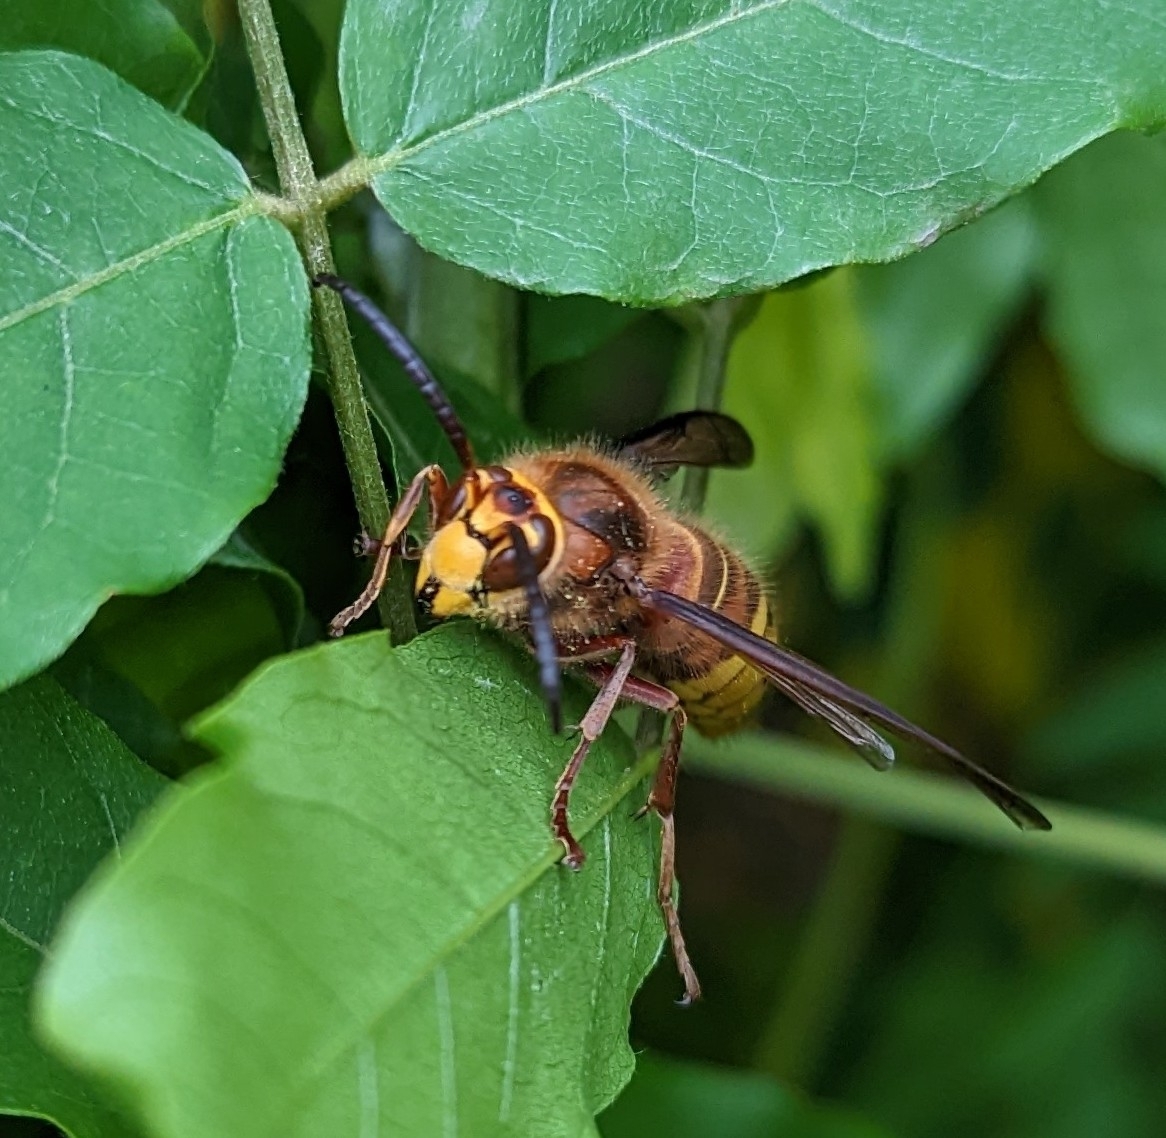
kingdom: Animalia
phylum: Arthropoda
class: Insecta
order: Hymenoptera
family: Vespidae
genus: Vespa
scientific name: Vespa crabro
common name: Hornet
